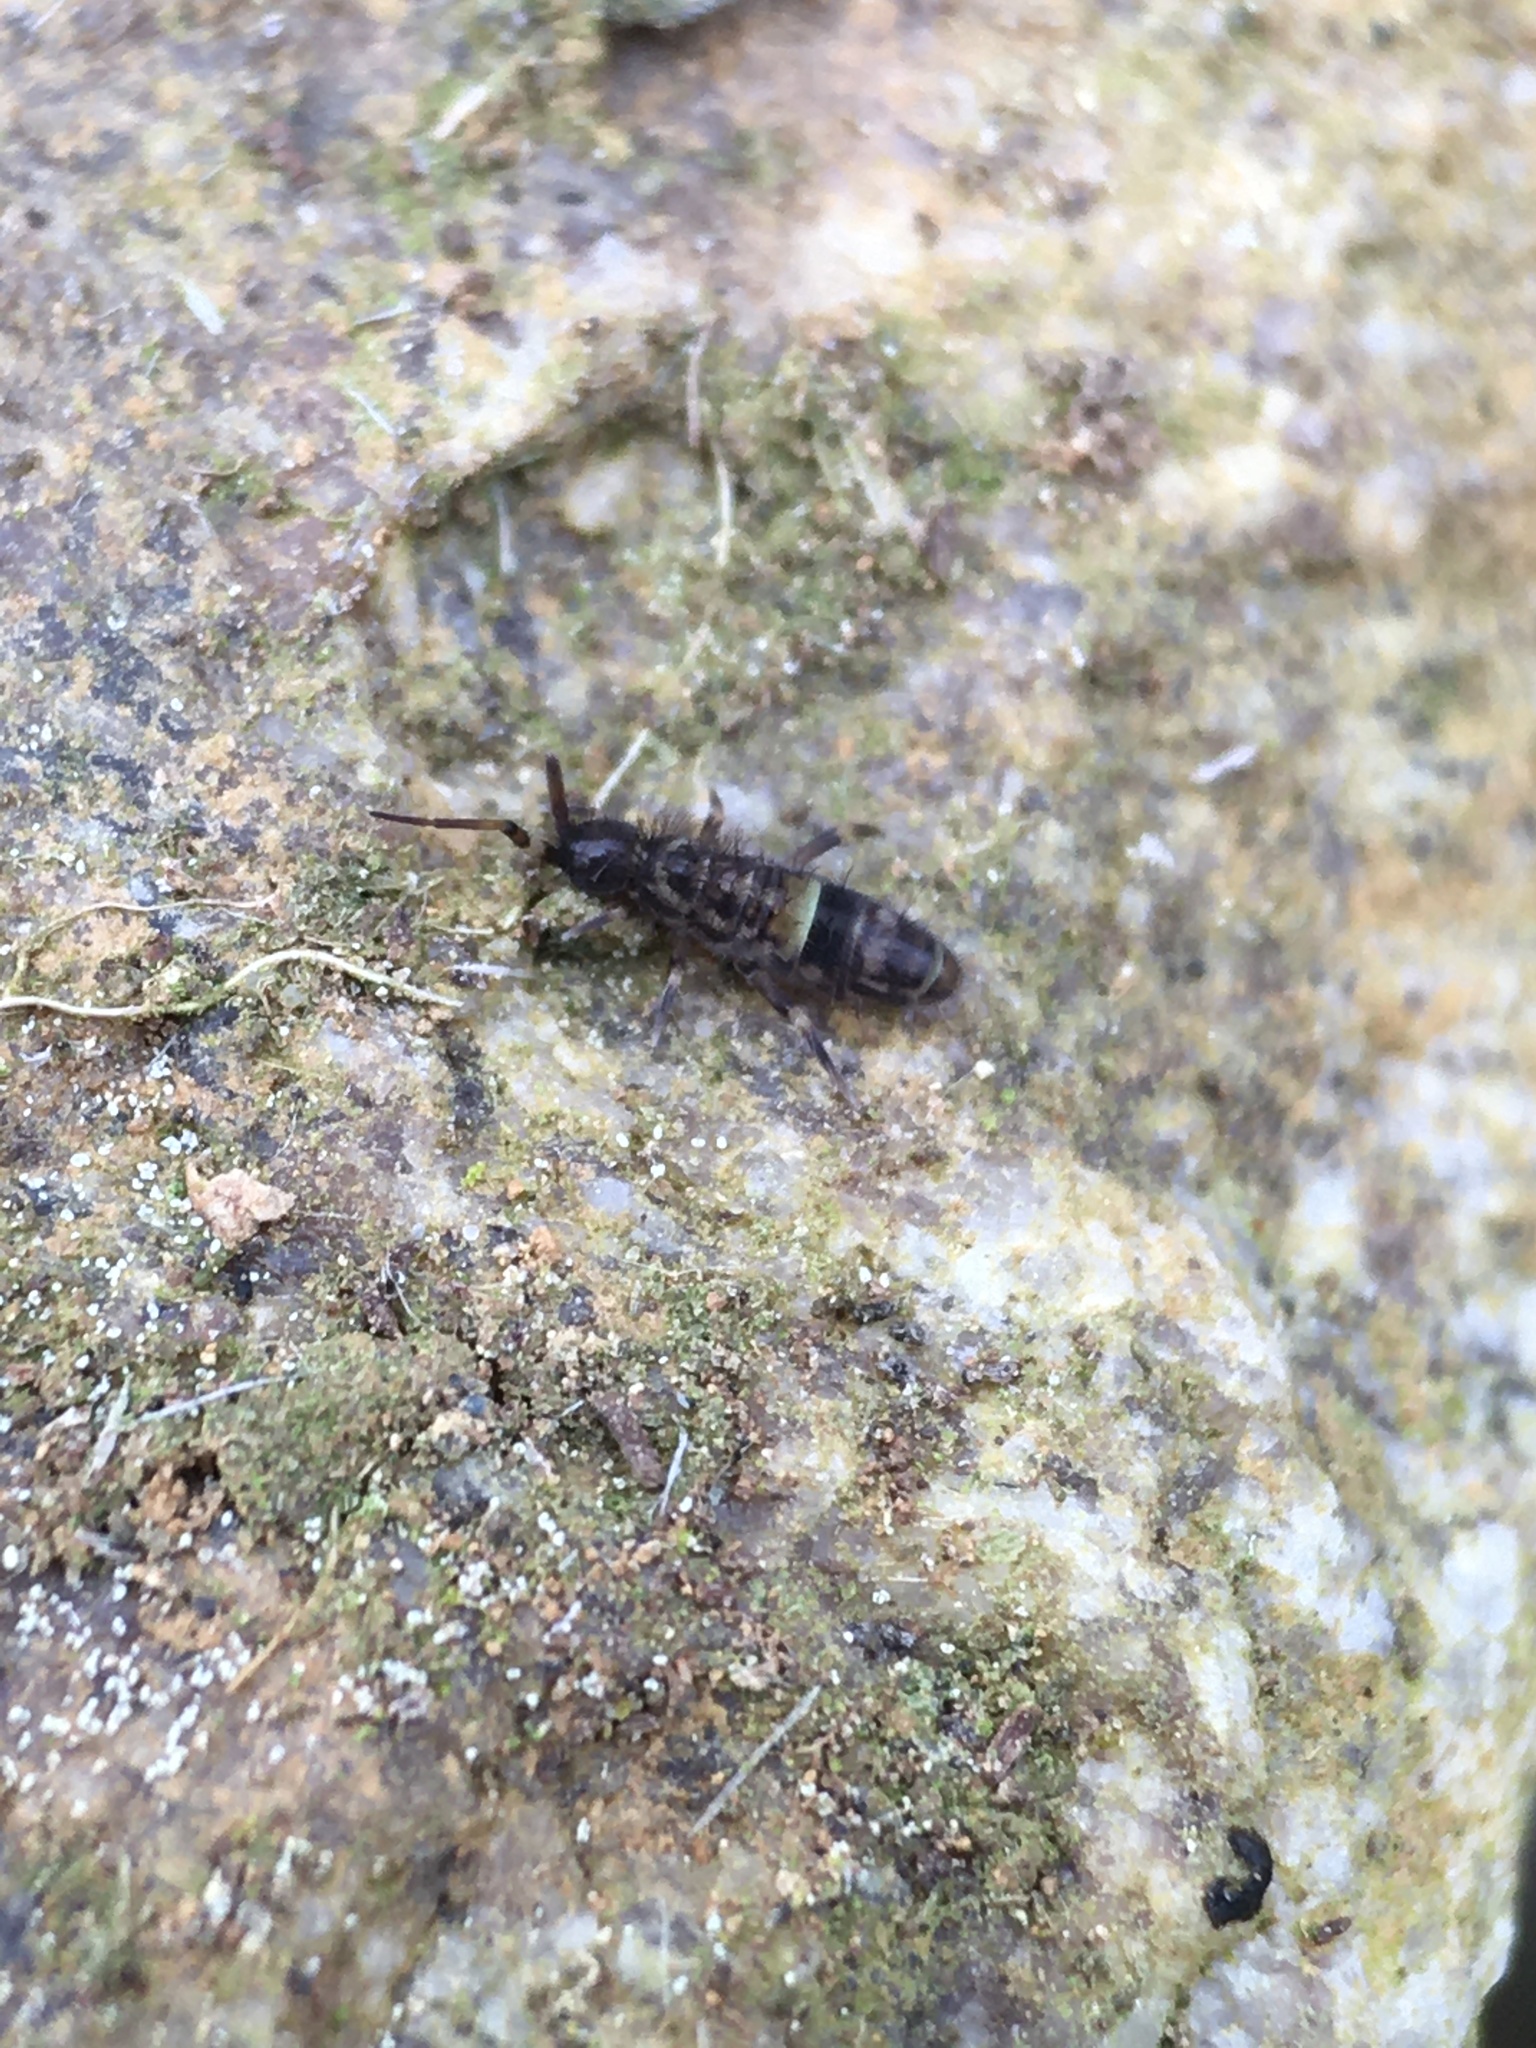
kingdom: Animalia
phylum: Arthropoda
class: Collembola
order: Entomobryomorpha
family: Orchesellidae
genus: Orchesella
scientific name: Orchesella cincta
